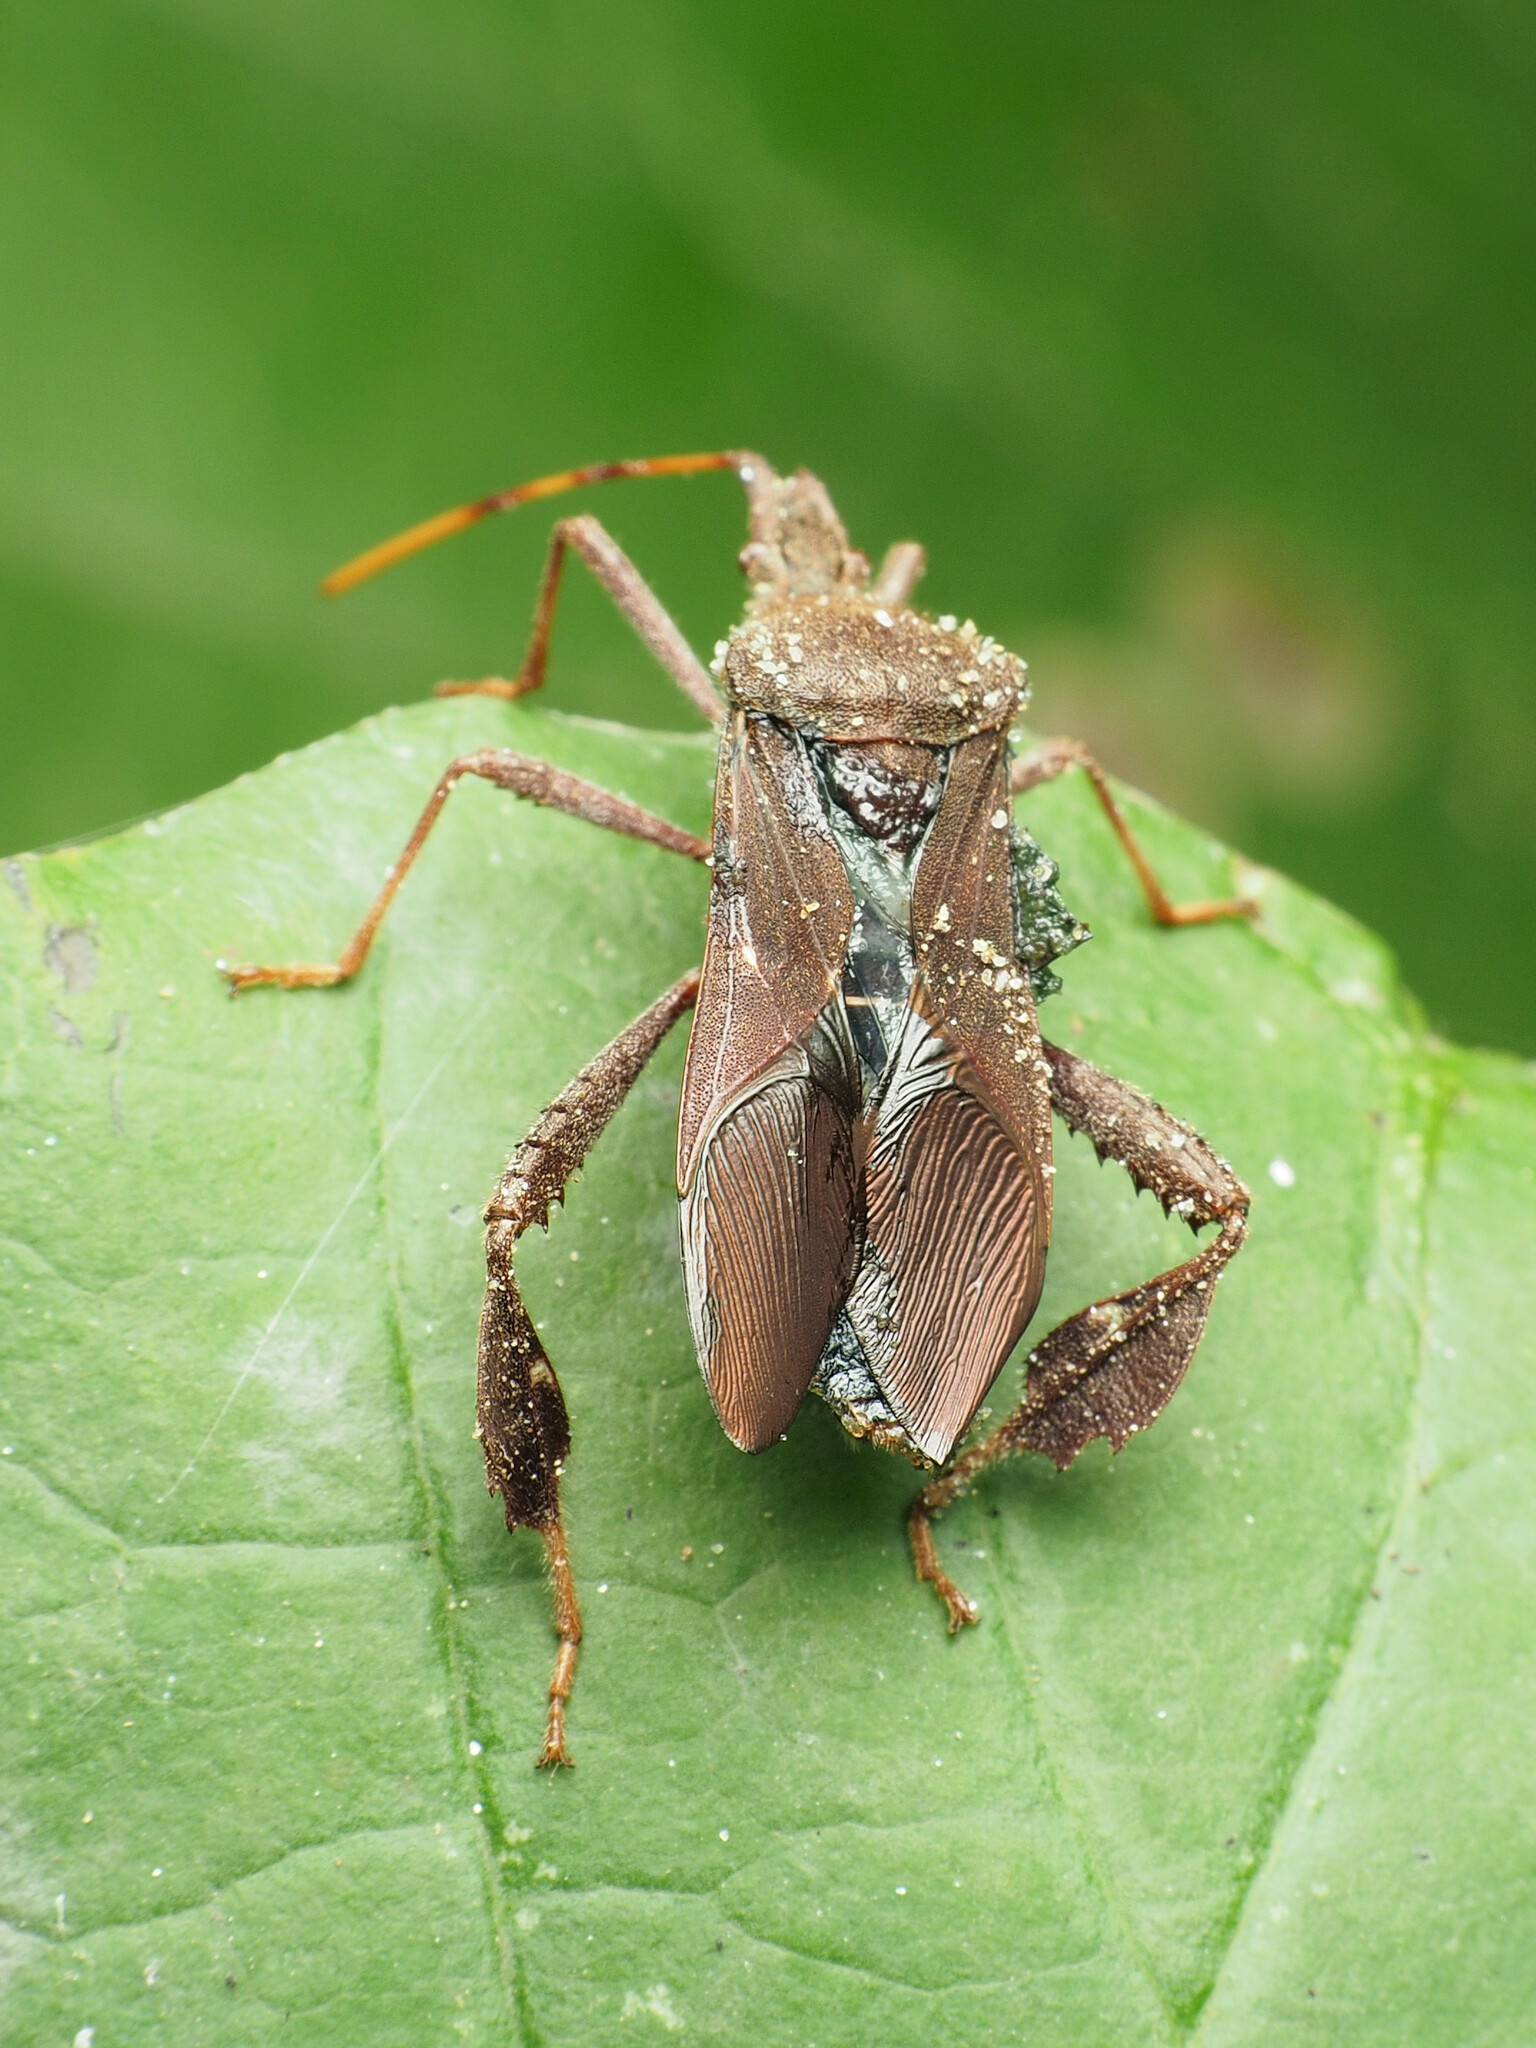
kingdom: Animalia
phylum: Arthropoda
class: Insecta
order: Hemiptera
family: Coreidae
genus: Leptoglossus
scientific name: Leptoglossus oppositus
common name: Northern leaf-footed bug
